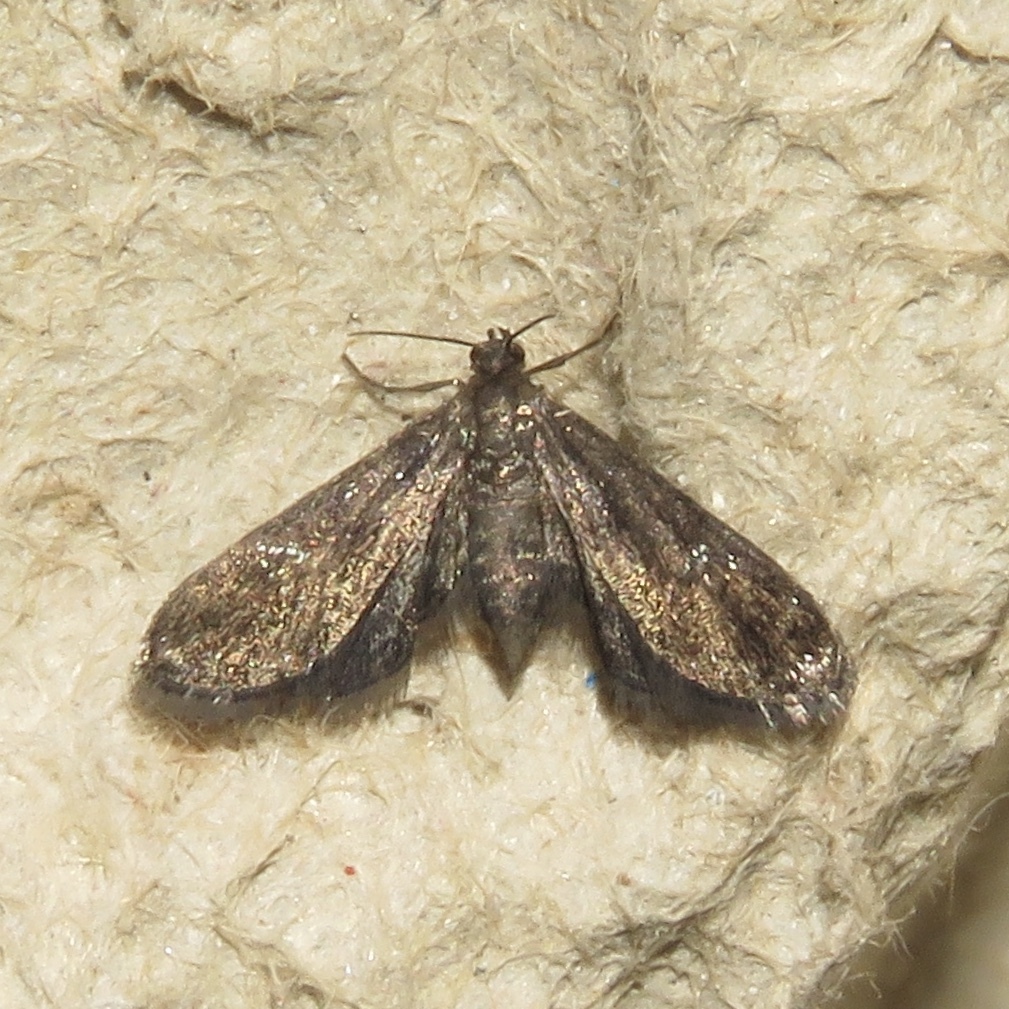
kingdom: Animalia
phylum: Arthropoda
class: Insecta
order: Lepidoptera
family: Crambidae
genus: Elophila
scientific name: Elophila tinealis
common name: Black duckweed moth
